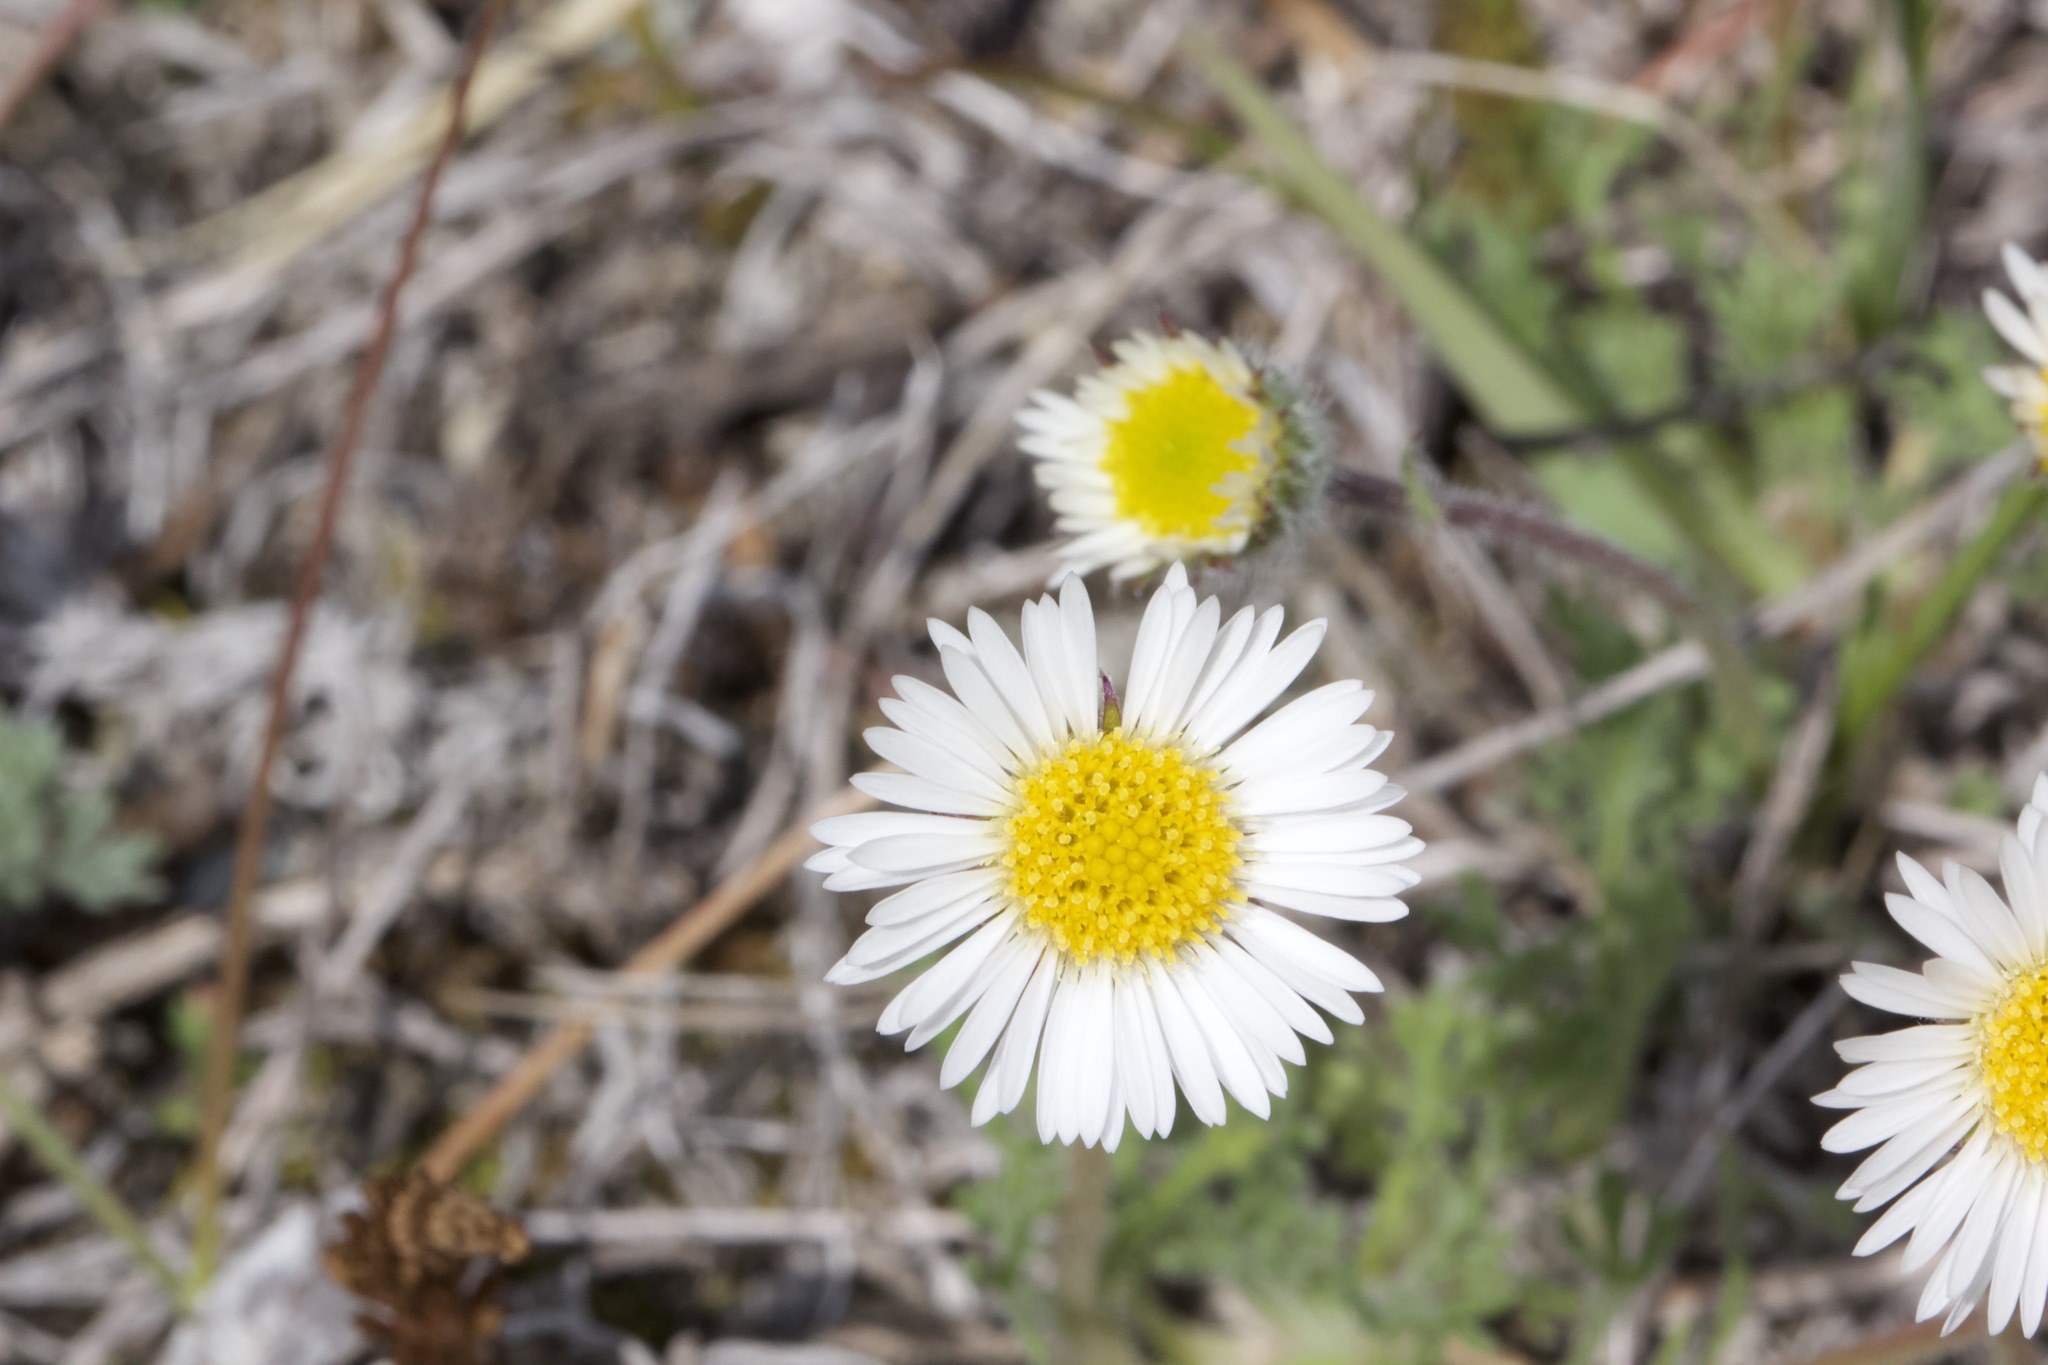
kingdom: Plantae
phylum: Tracheophyta
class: Magnoliopsida
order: Asterales
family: Asteraceae
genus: Erigeron
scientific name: Erigeron compositus
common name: Dwarf mountain fleabane
